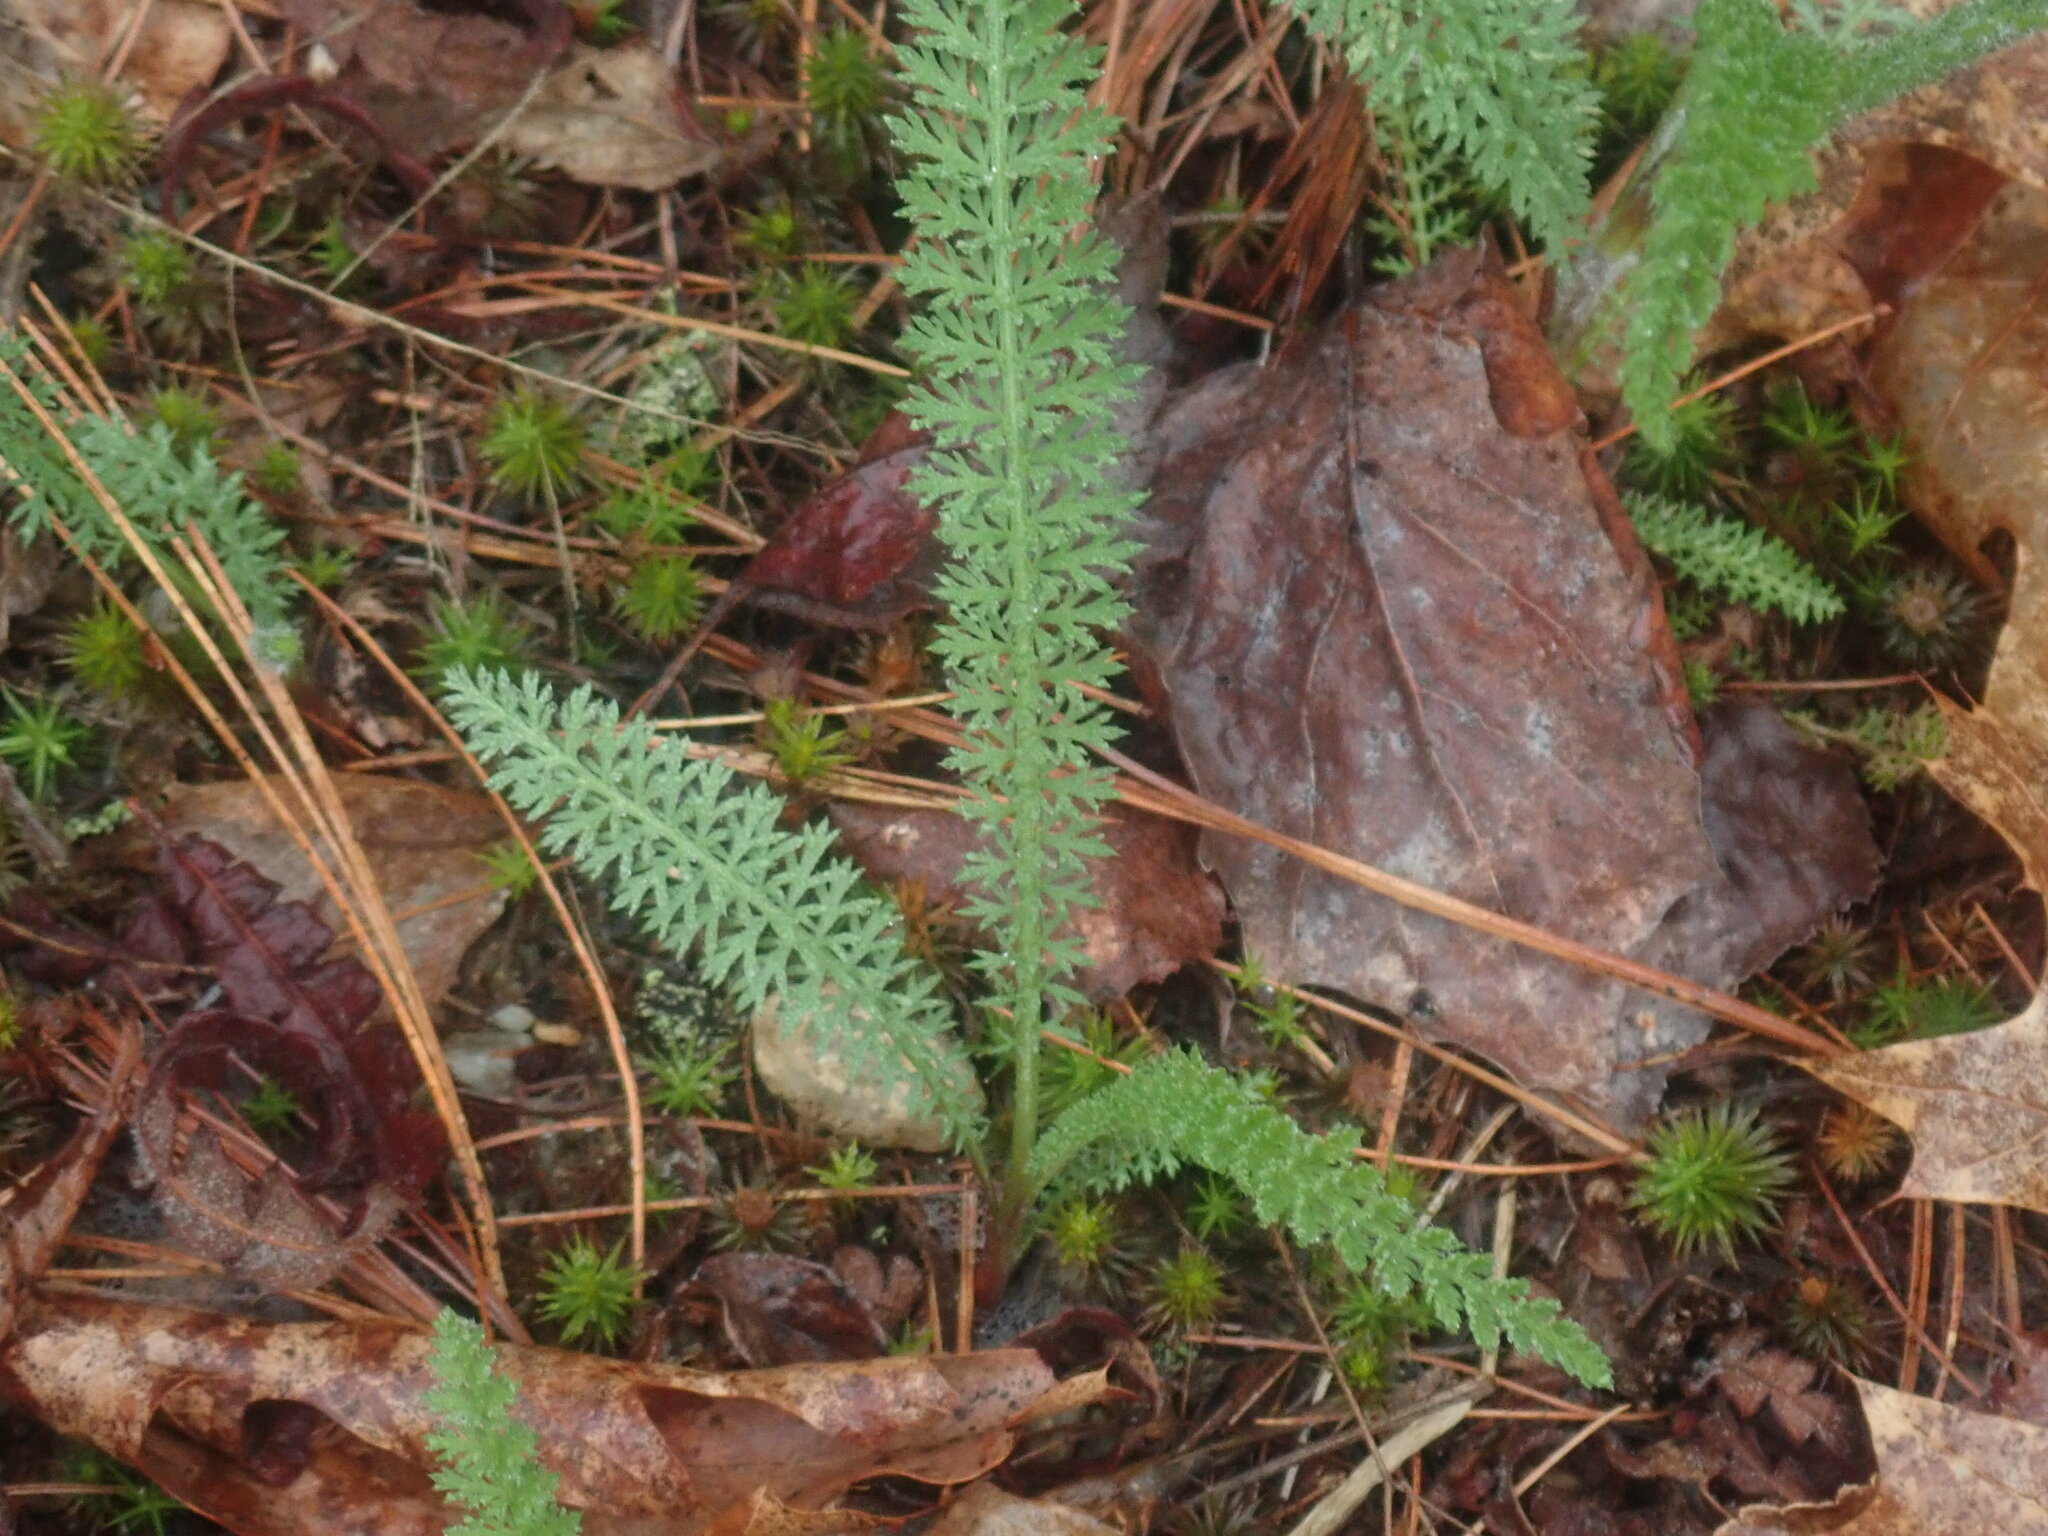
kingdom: Plantae
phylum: Tracheophyta
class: Magnoliopsida
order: Asterales
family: Asteraceae
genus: Achillea
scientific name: Achillea millefolium
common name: Yarrow
